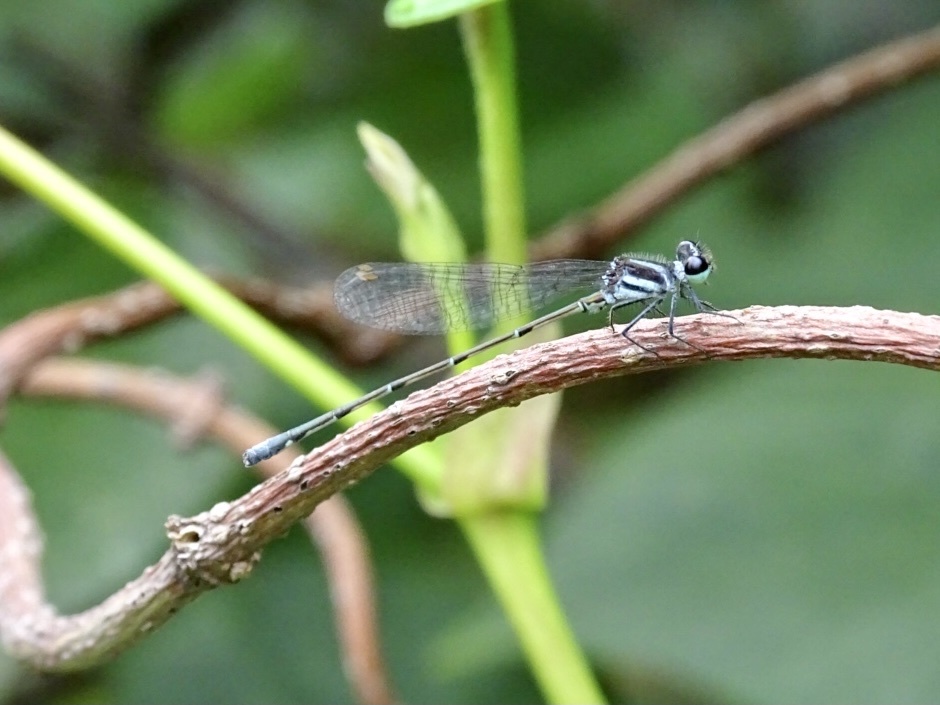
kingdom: Animalia
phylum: Arthropoda
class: Insecta
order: Odonata
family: Platycnemididae
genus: Onychargia
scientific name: Onychargia atrocyana
